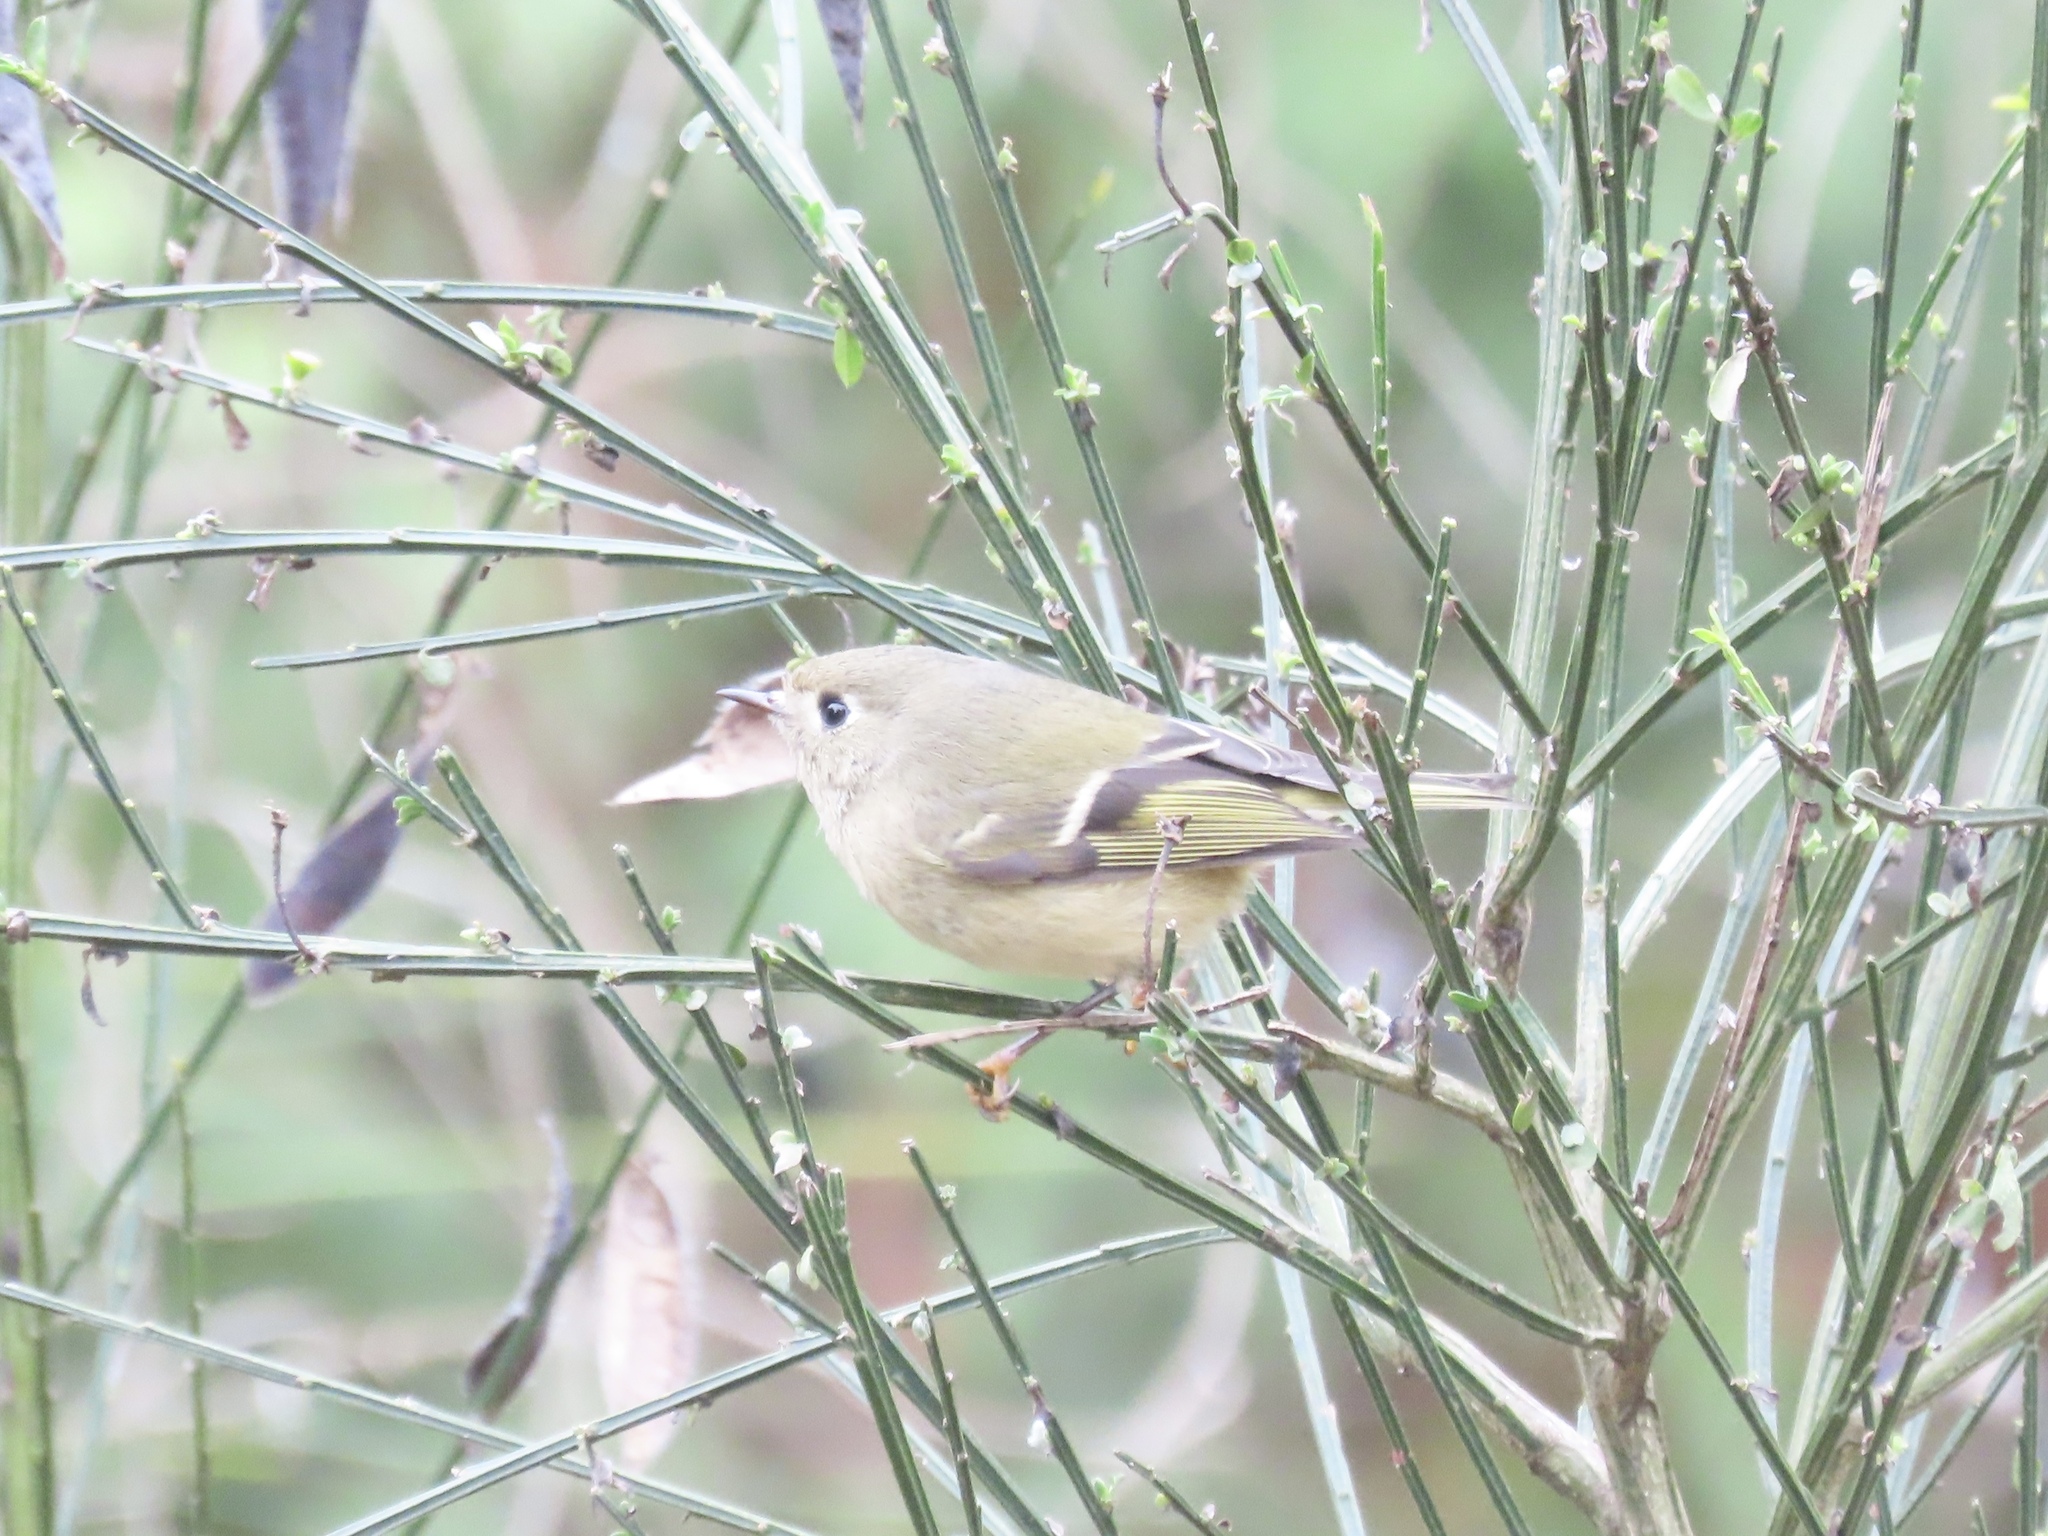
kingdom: Animalia
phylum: Chordata
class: Aves
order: Passeriformes
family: Regulidae
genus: Regulus
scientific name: Regulus calendula
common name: Ruby-crowned kinglet
